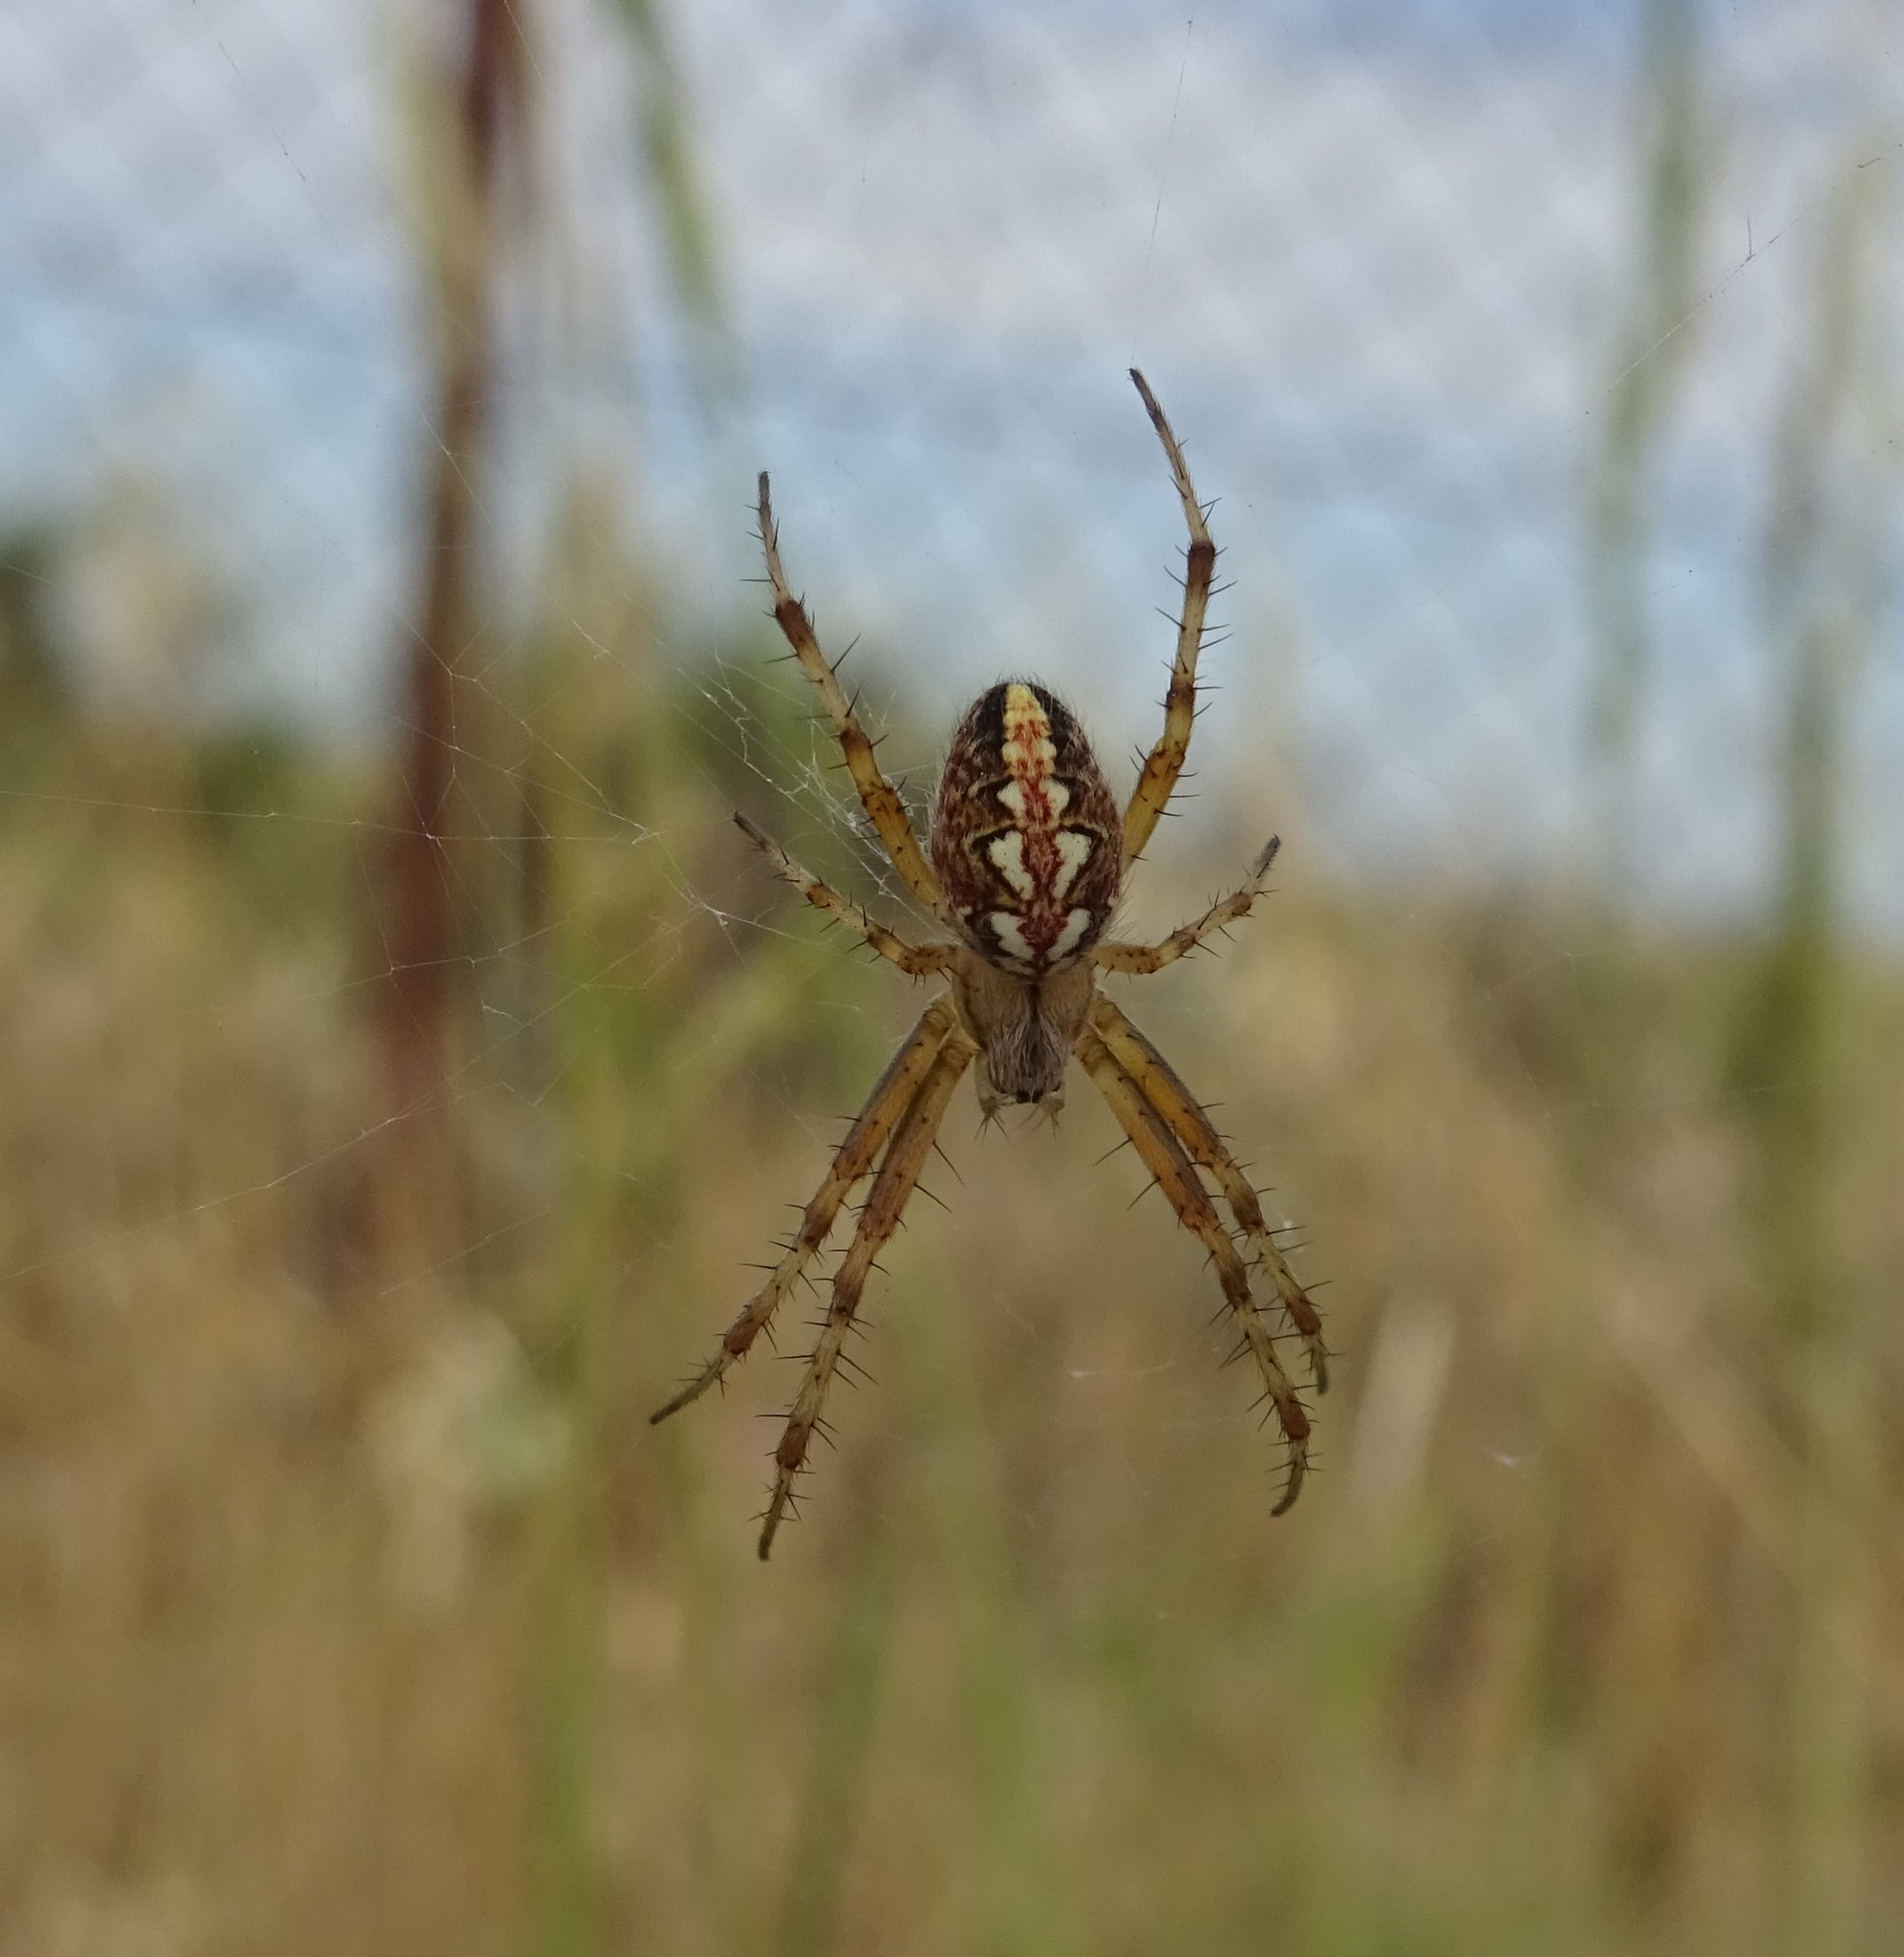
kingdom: Animalia
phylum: Arthropoda
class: Arachnida
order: Araneae
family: Araneidae
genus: Neoscona
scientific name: Neoscona adianta
